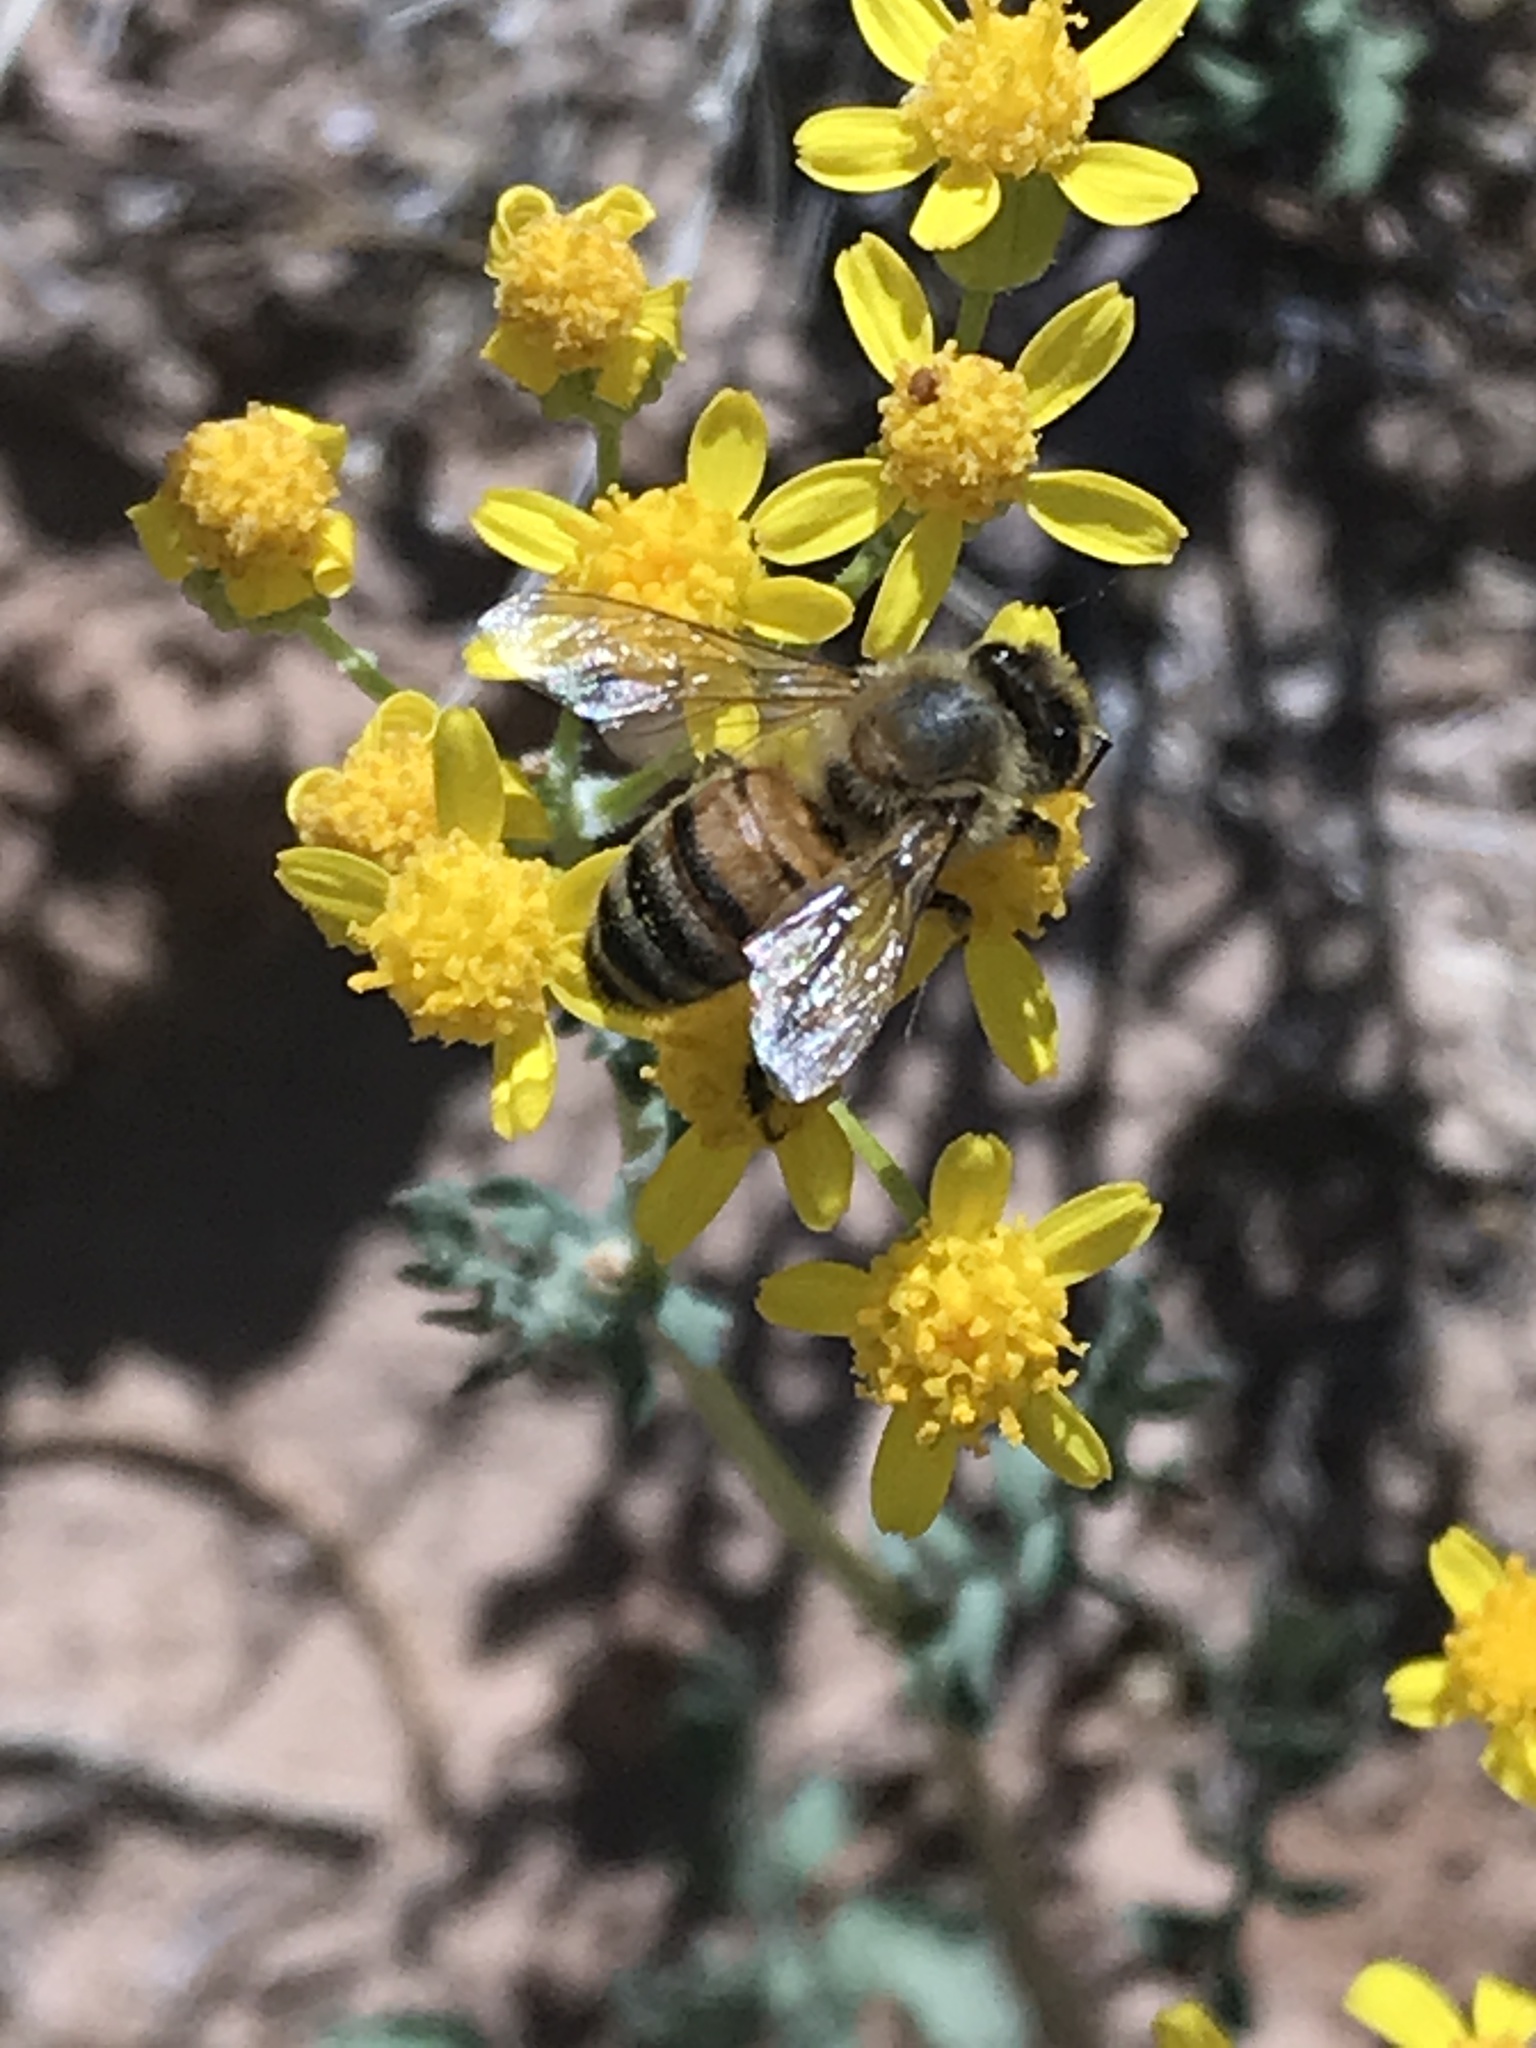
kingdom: Animalia
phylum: Arthropoda
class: Insecta
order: Hymenoptera
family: Apidae
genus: Apis
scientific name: Apis mellifera
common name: Honey bee
